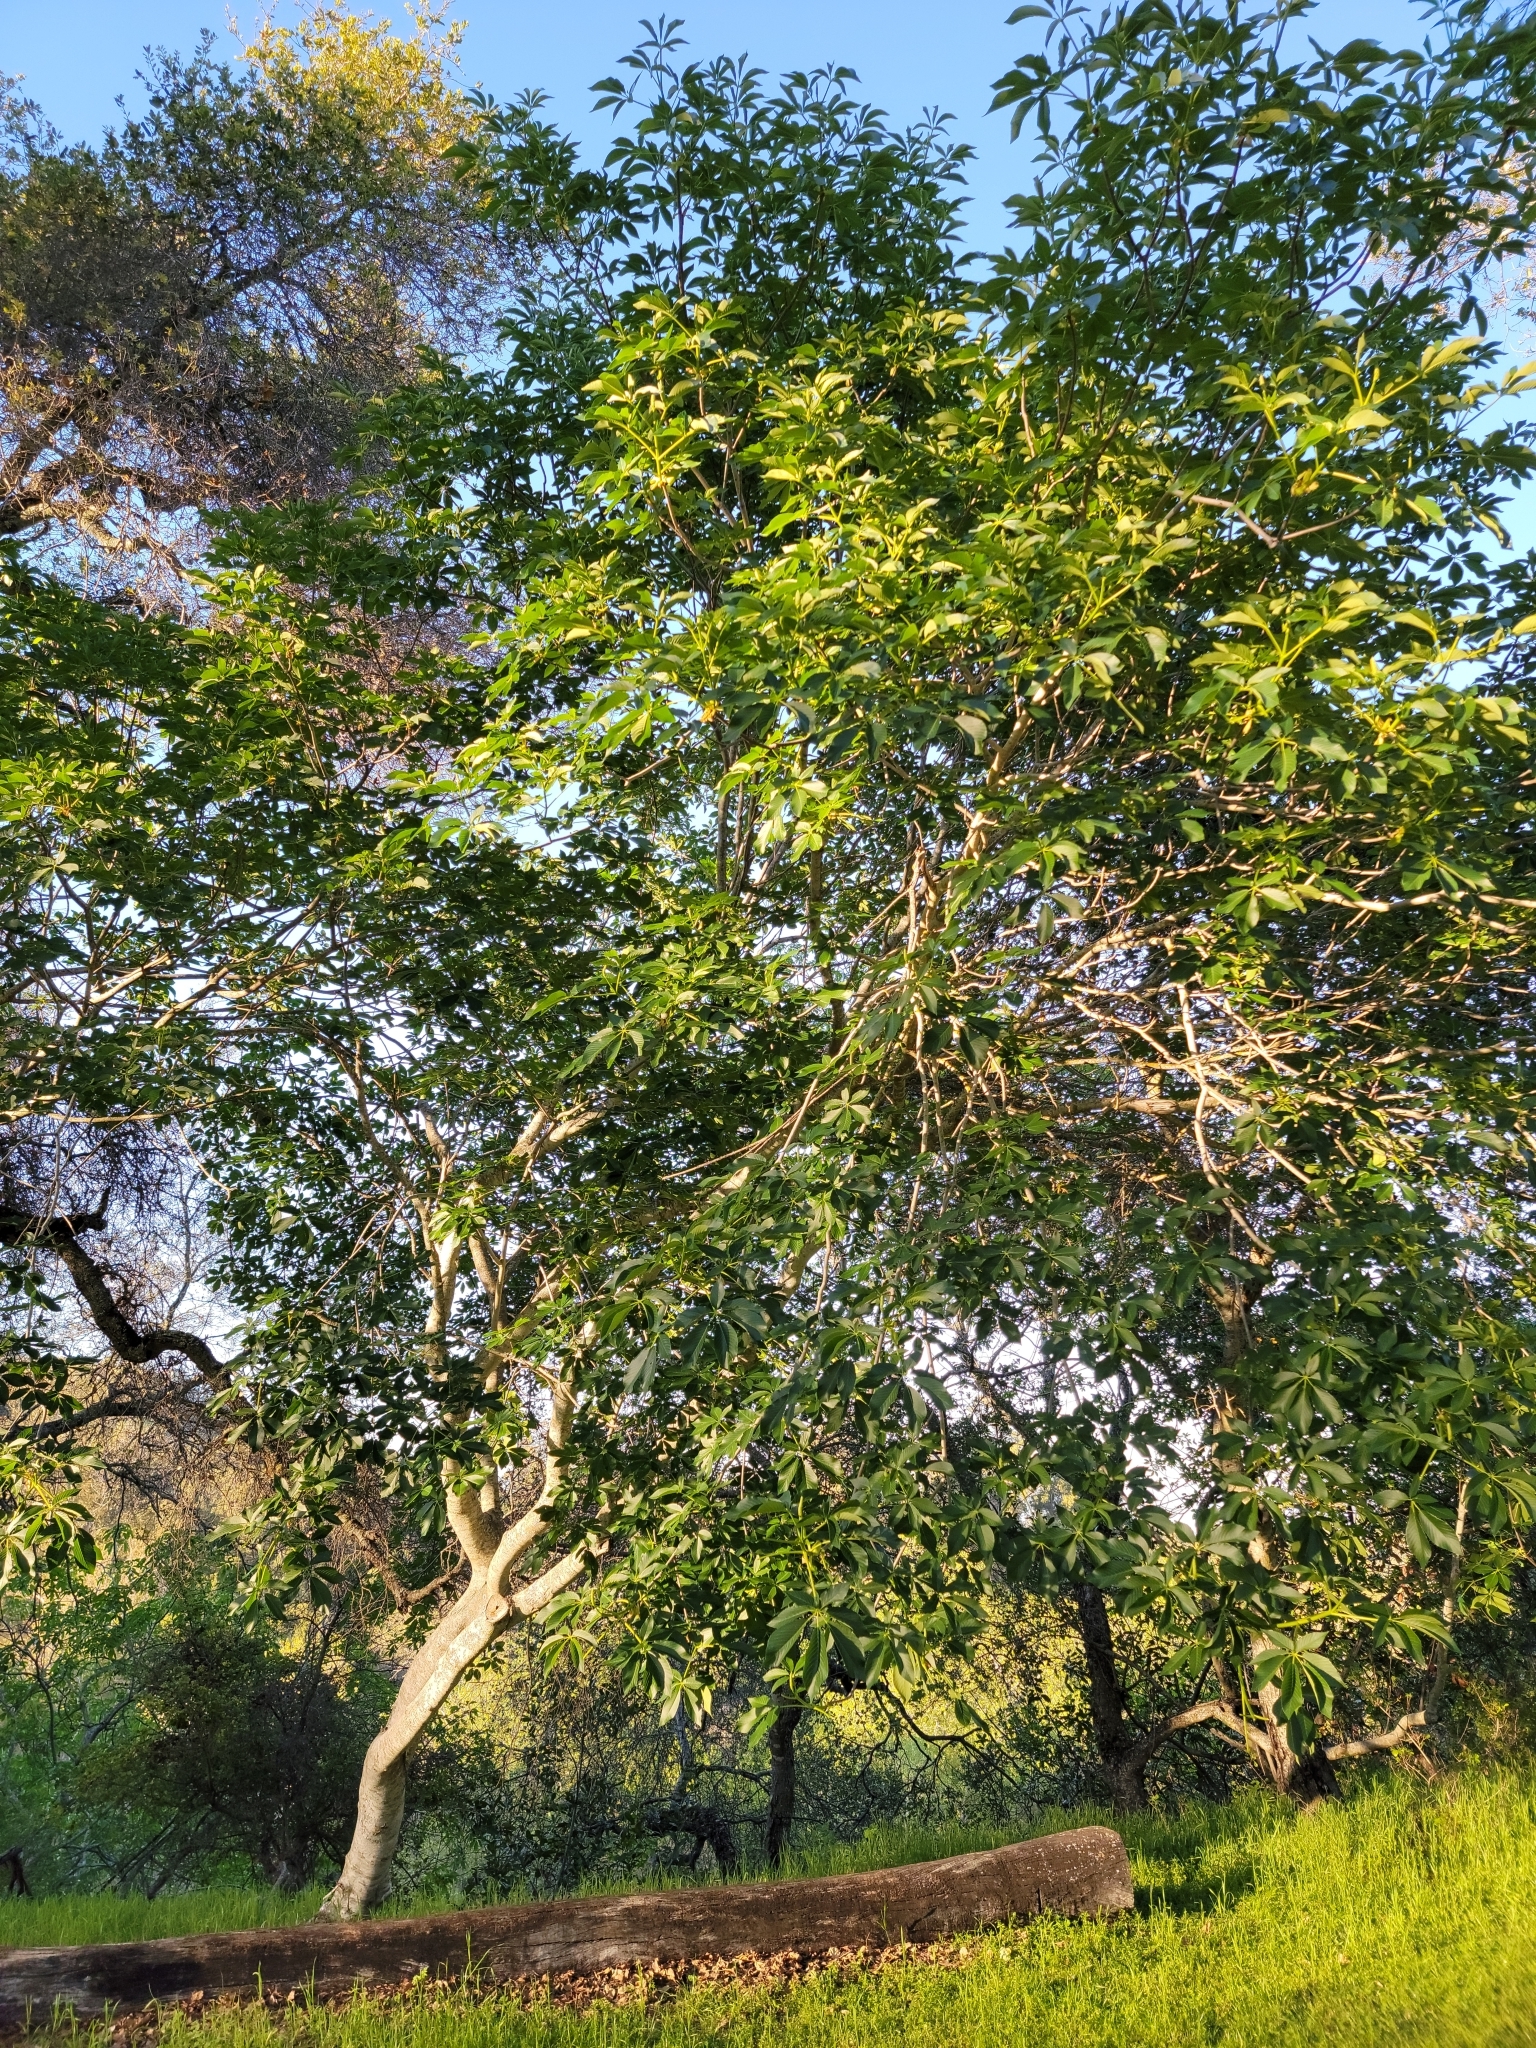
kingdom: Plantae
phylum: Tracheophyta
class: Magnoliopsida
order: Sapindales
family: Sapindaceae
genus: Aesculus
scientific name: Aesculus californica
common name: California buckeye
